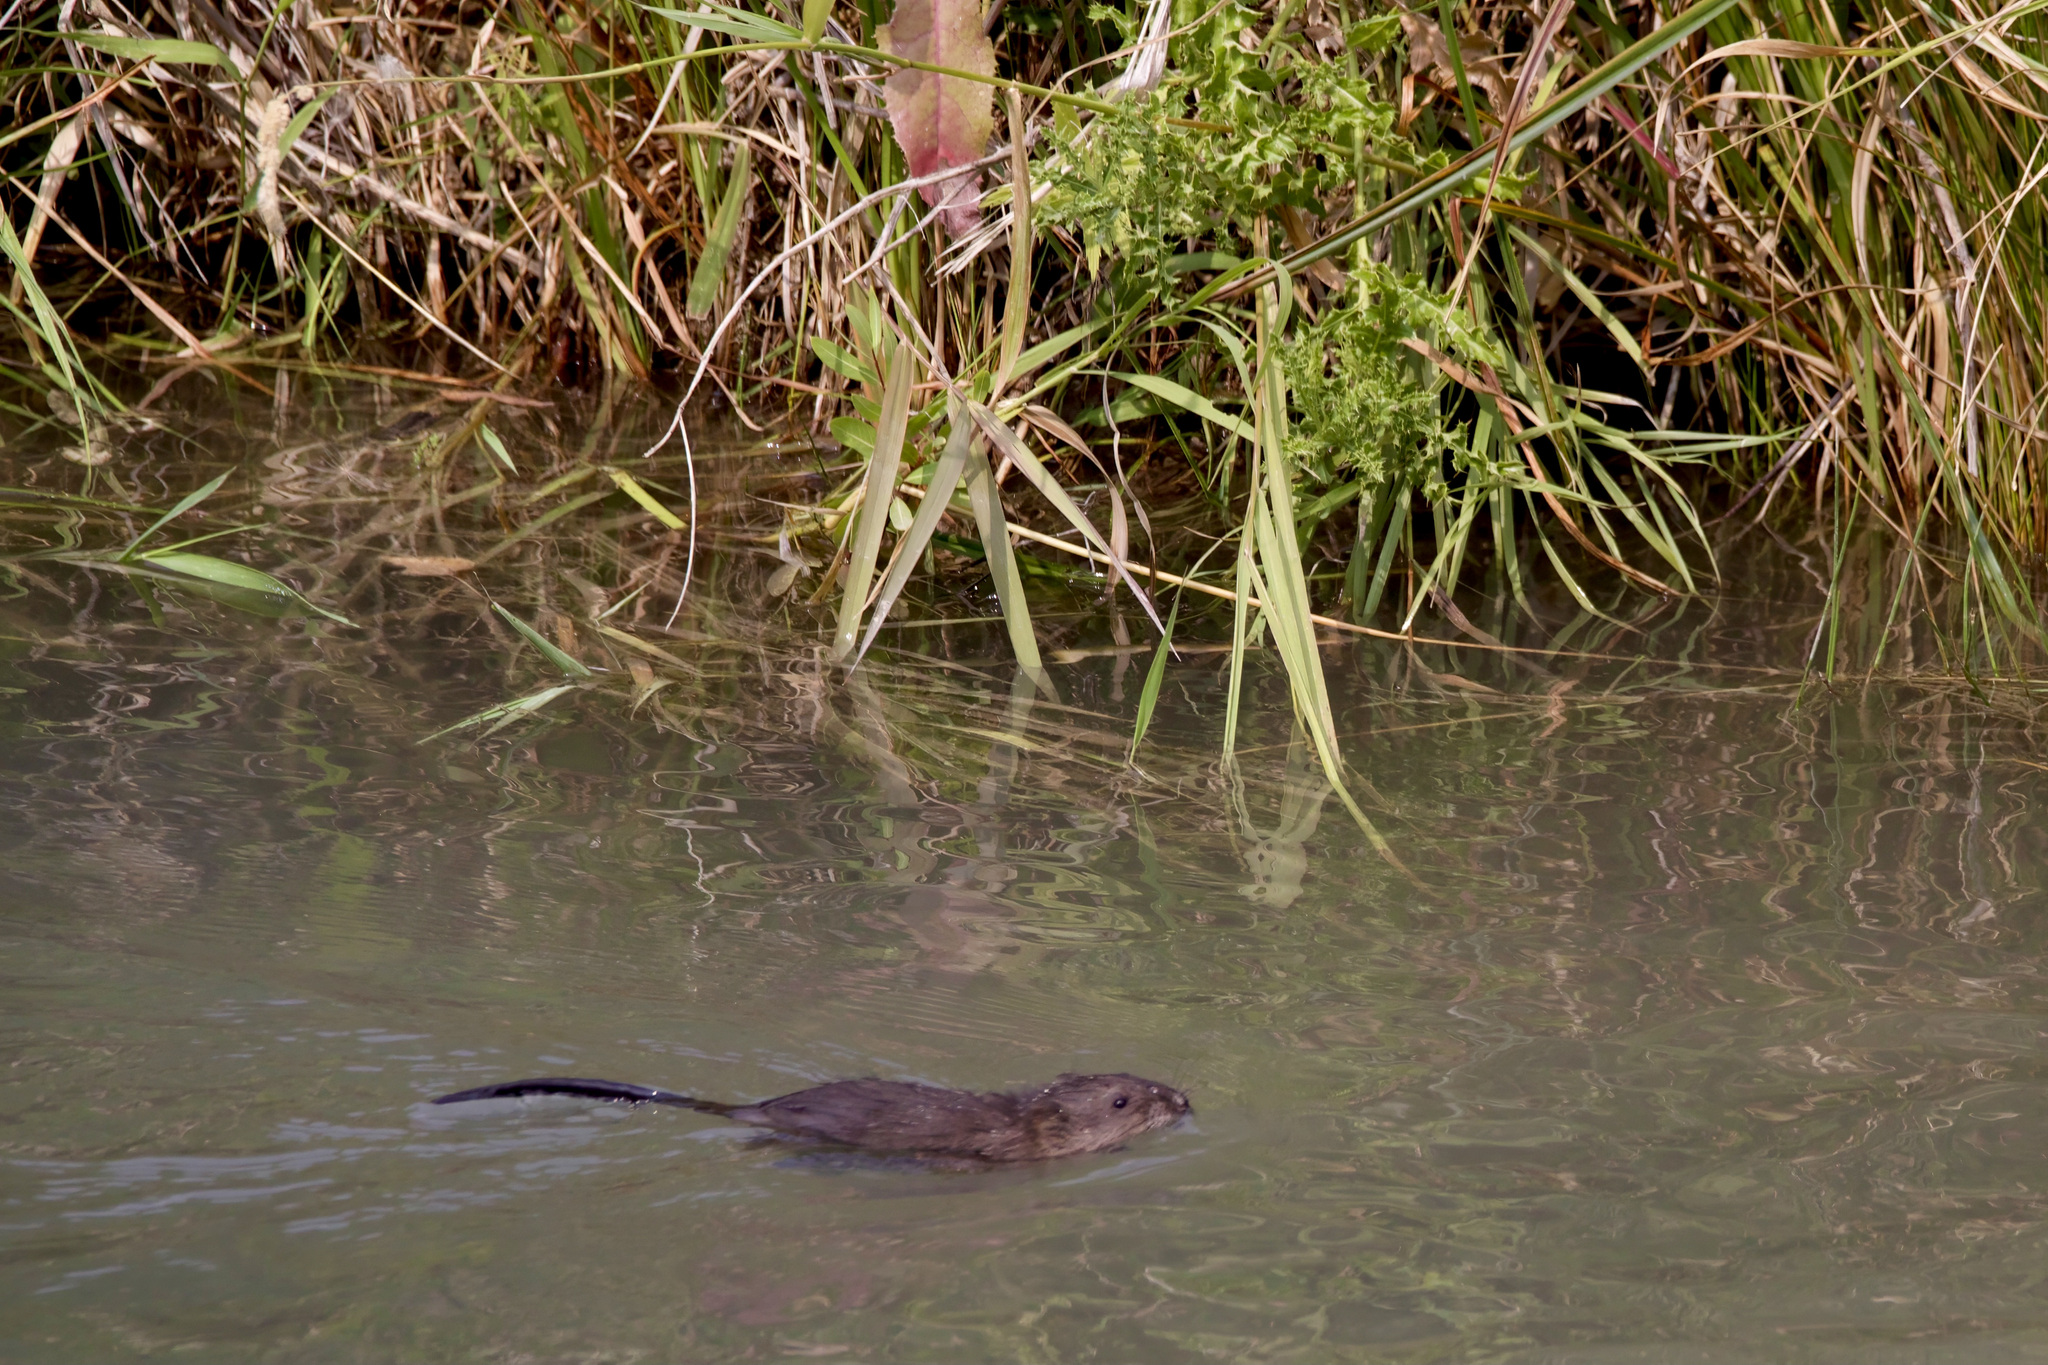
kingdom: Animalia
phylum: Chordata
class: Mammalia
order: Rodentia
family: Cricetidae
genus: Ondatra
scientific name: Ondatra zibethicus
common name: Muskrat
